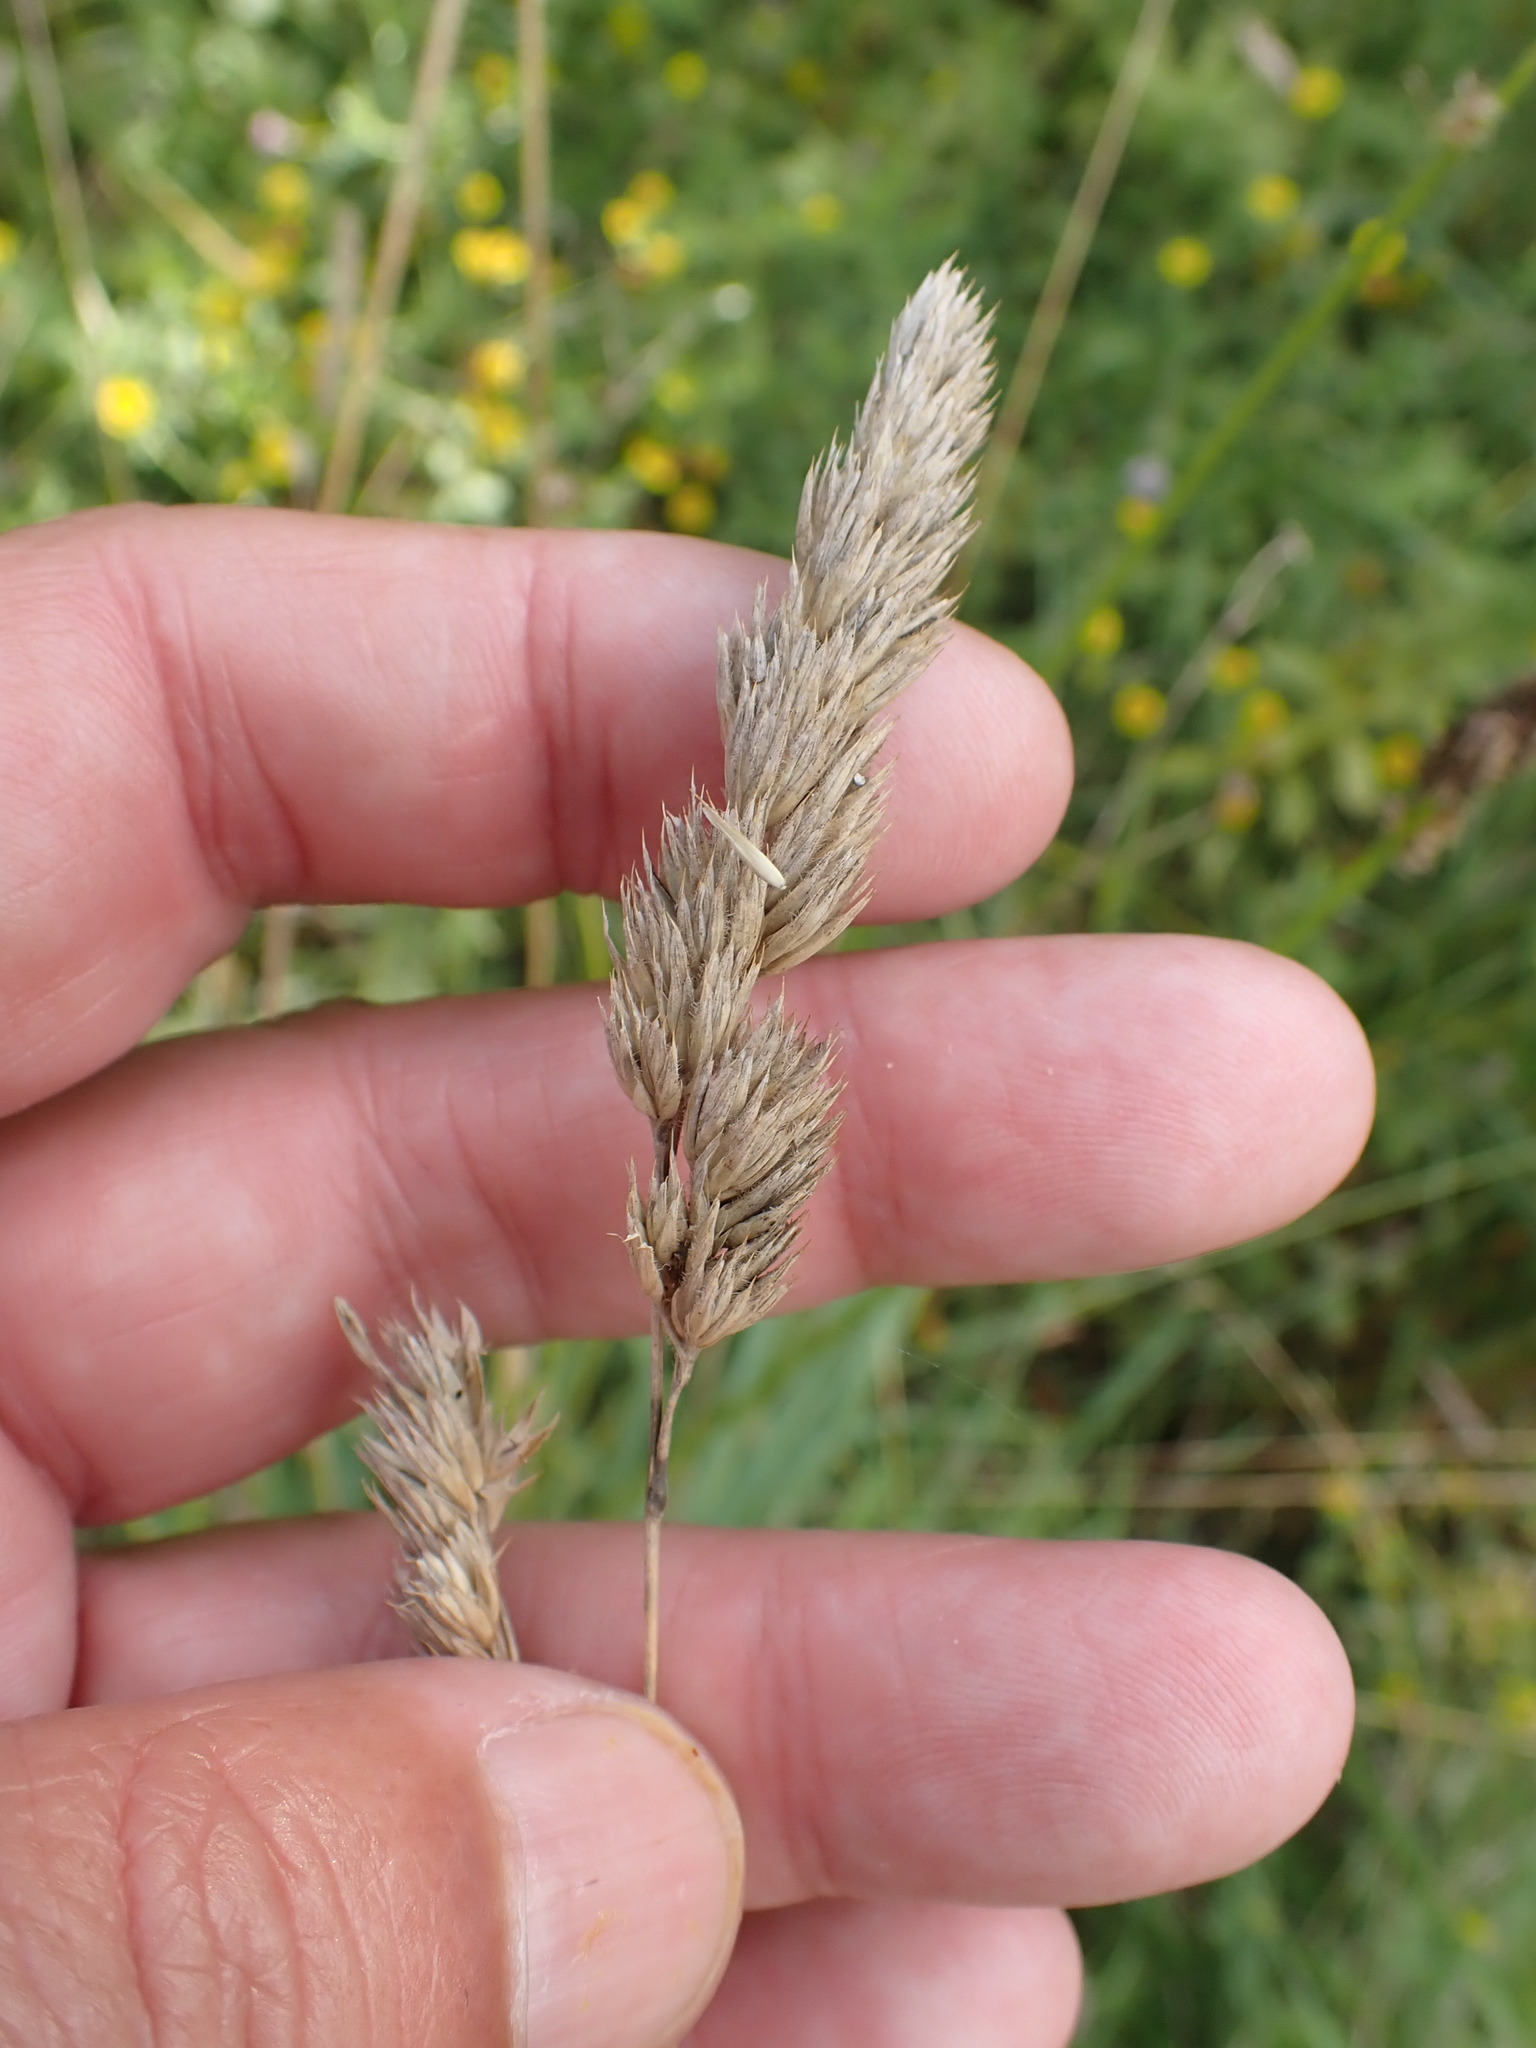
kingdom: Plantae
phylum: Tracheophyta
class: Liliopsida
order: Poales
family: Poaceae
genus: Dactylis
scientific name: Dactylis glomerata
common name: Orchardgrass
